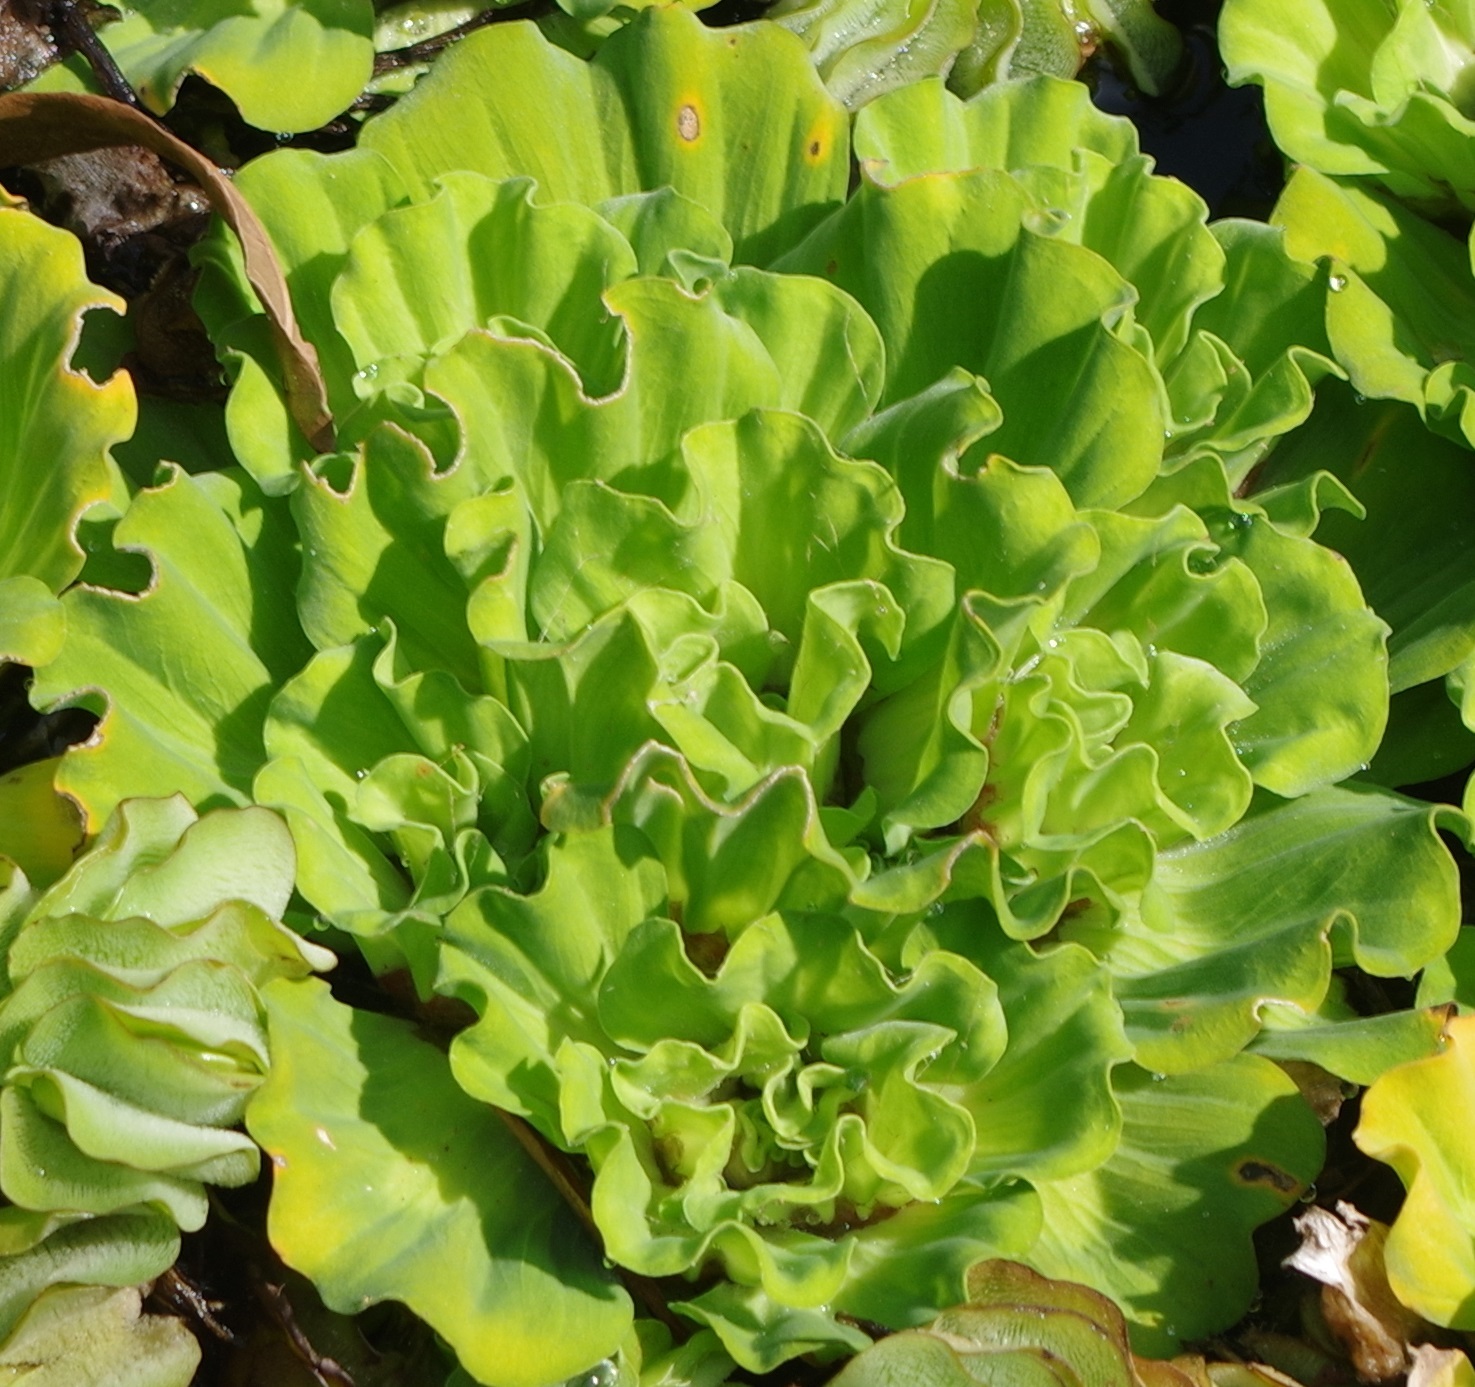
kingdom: Plantae
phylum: Tracheophyta
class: Liliopsida
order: Alismatales
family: Araceae
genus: Pistia
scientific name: Pistia stratiotes
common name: Water lettuce
